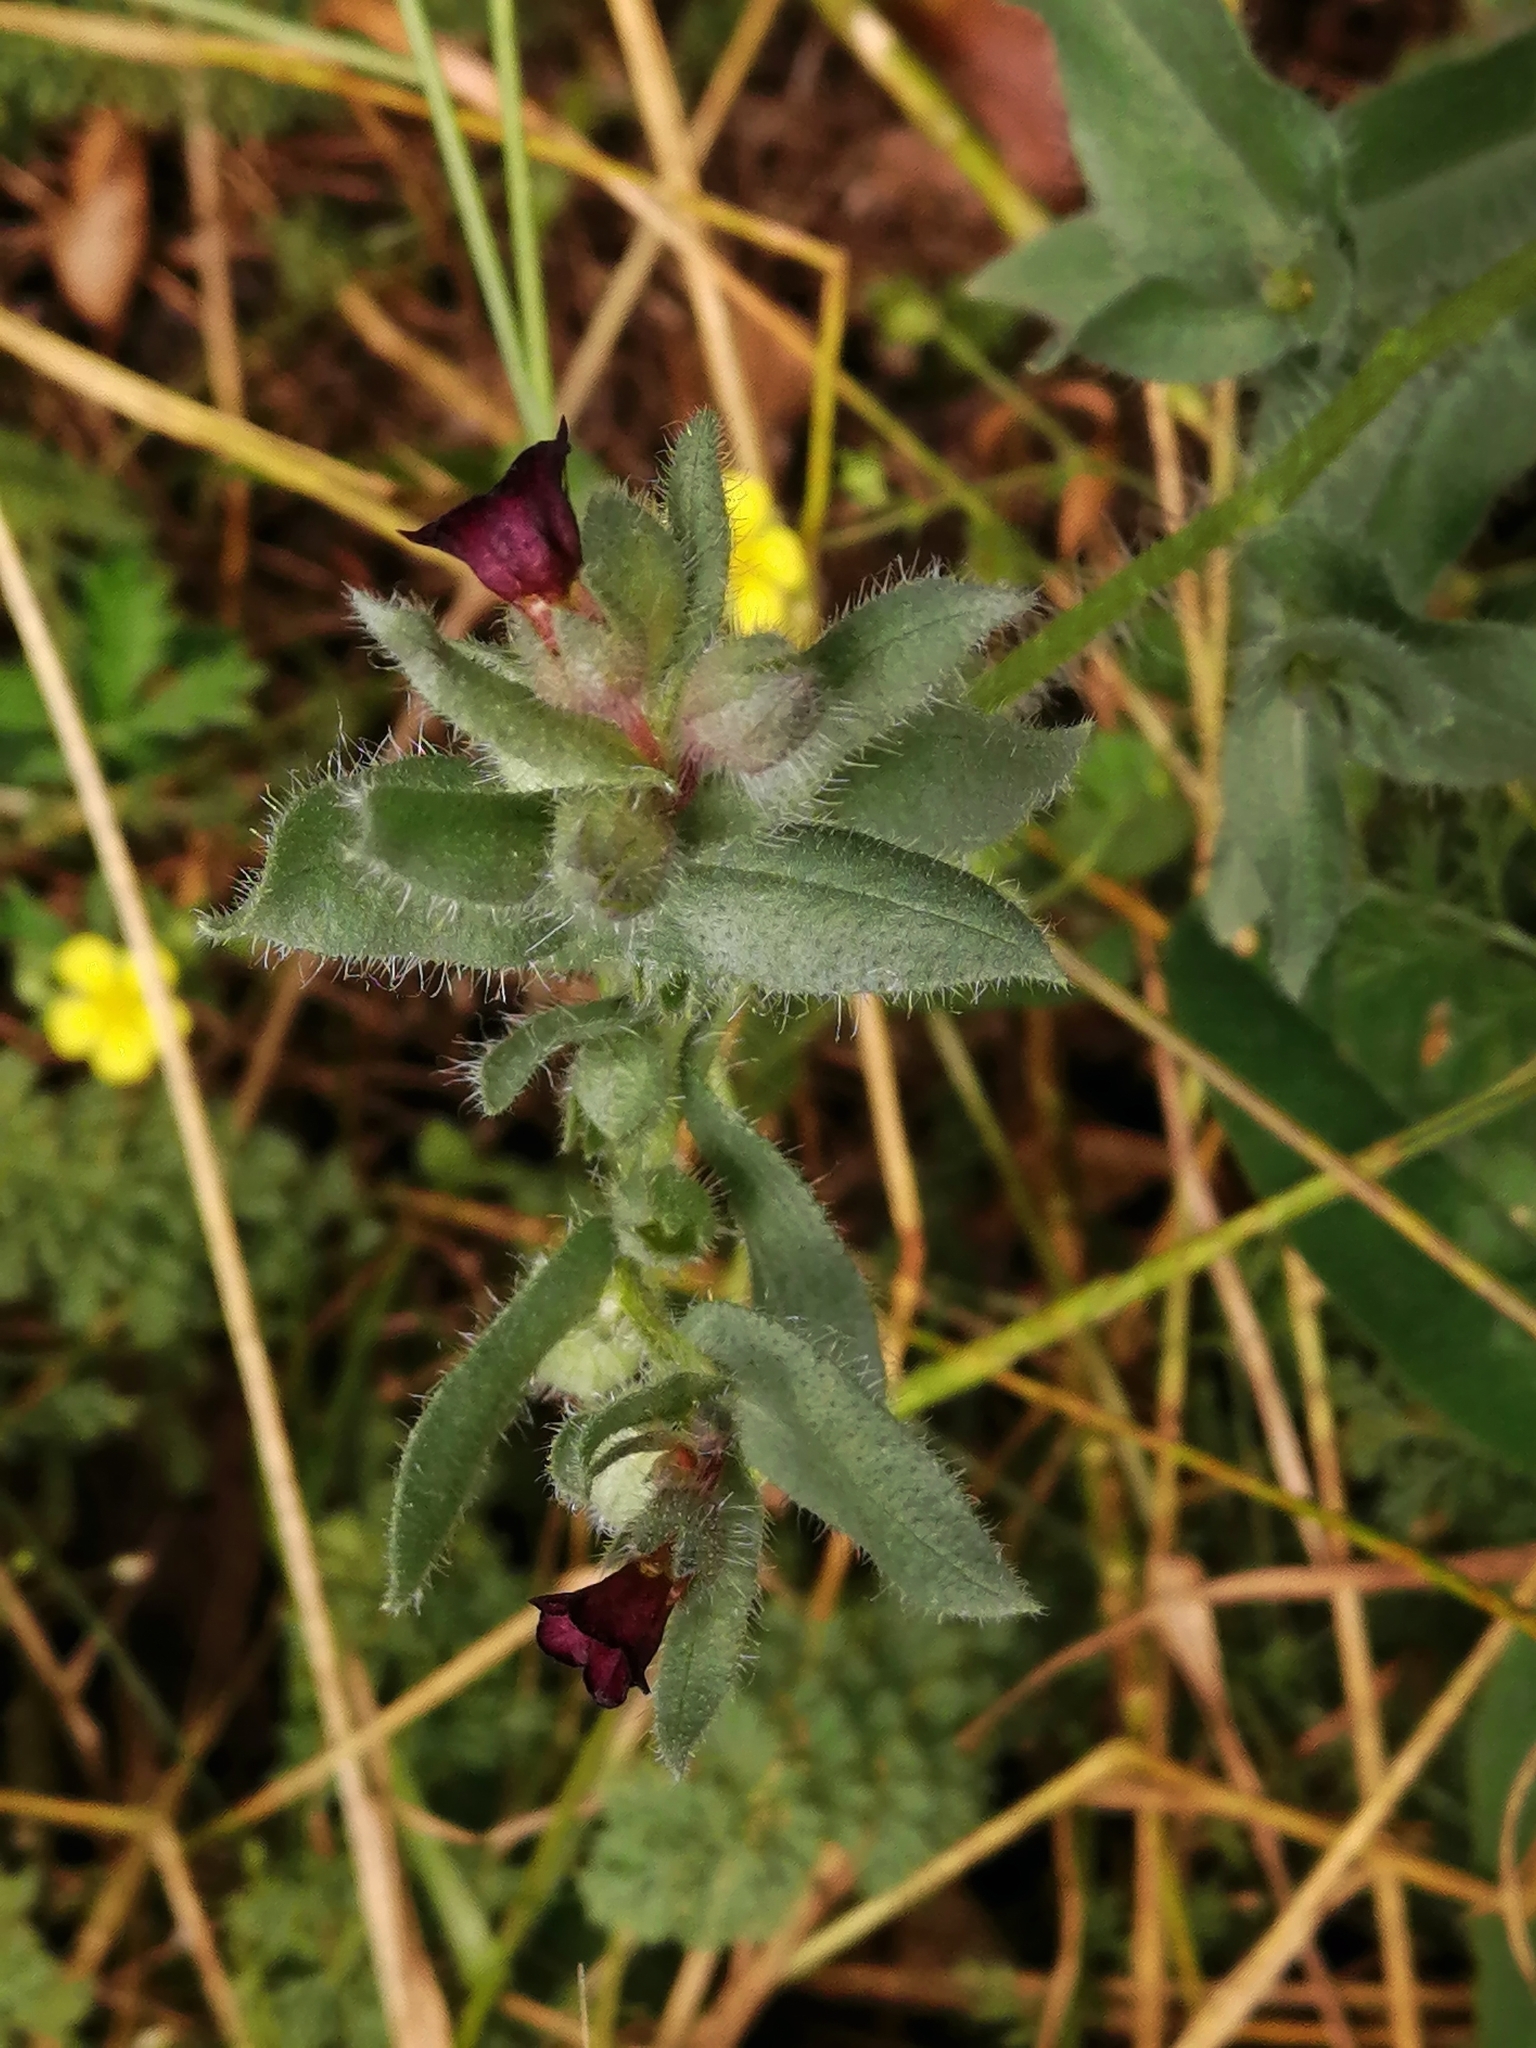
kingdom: Plantae
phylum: Tracheophyta
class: Magnoliopsida
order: Boraginales
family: Boraginaceae
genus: Nonea
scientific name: Nonea pulla
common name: Brown nonea
